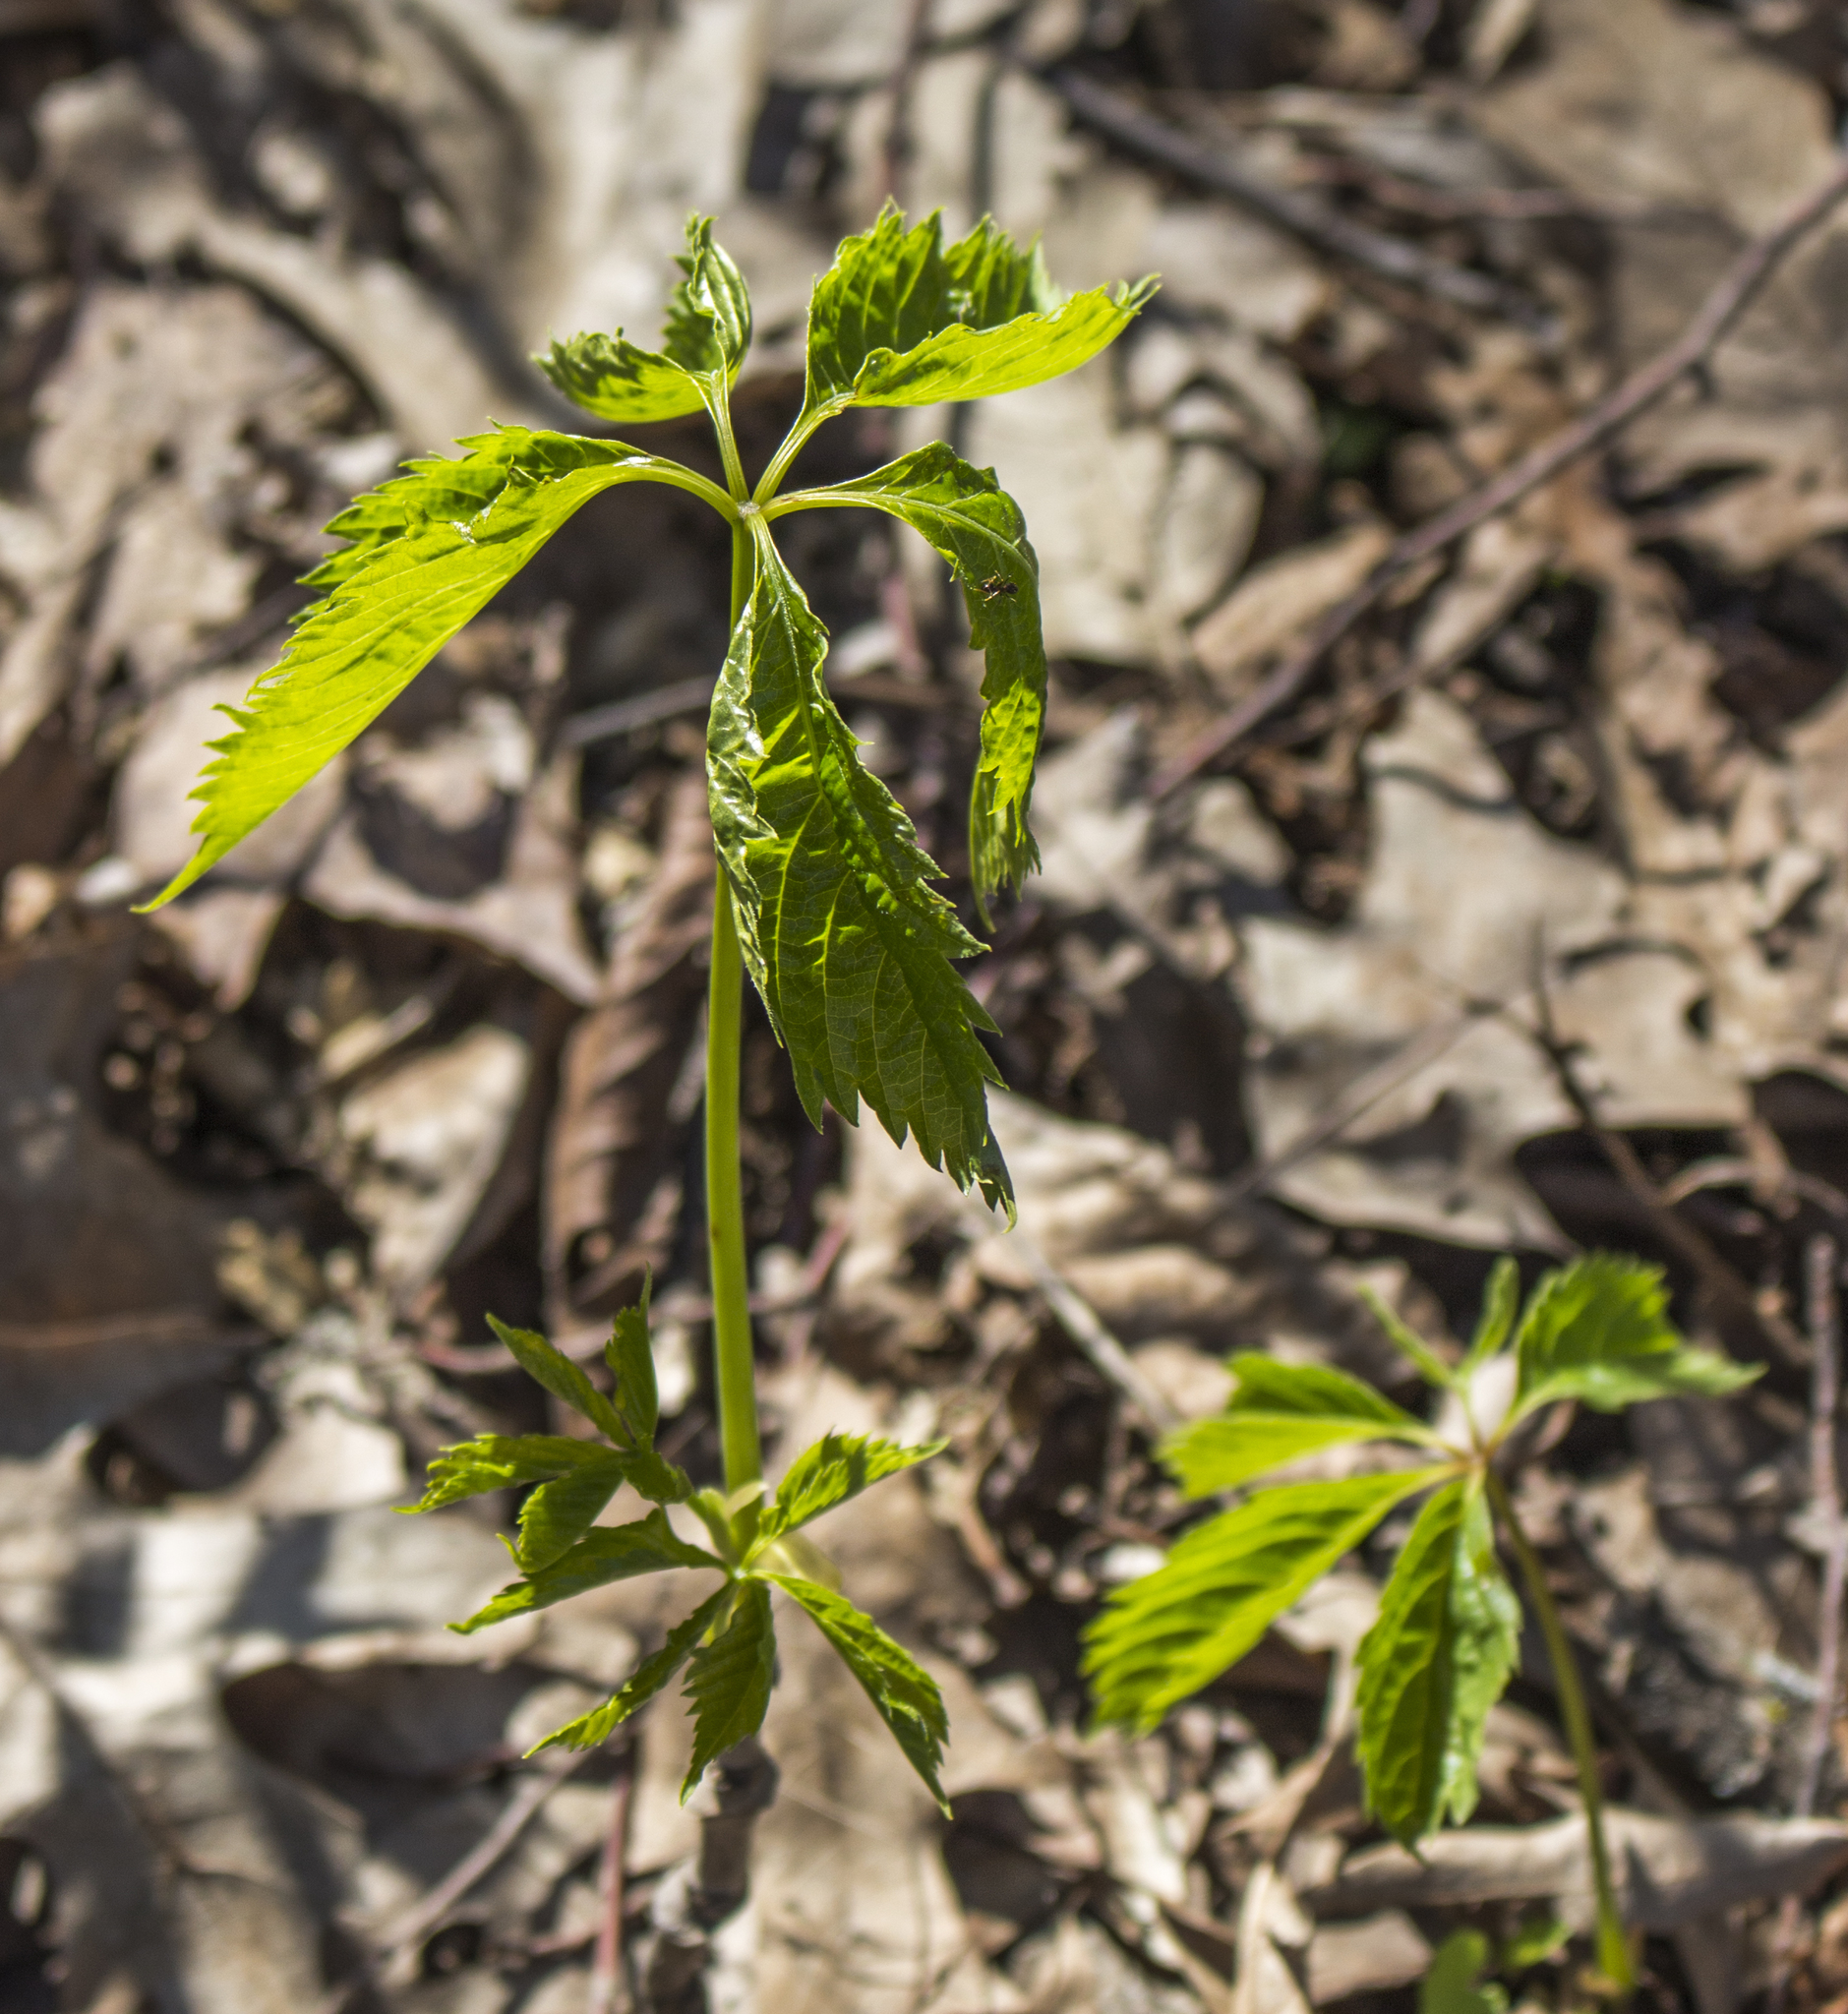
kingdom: Plantae
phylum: Tracheophyta
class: Magnoliopsida
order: Vitales
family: Vitaceae
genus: Parthenocissus
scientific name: Parthenocissus quinquefolia
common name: Virginia-creeper
